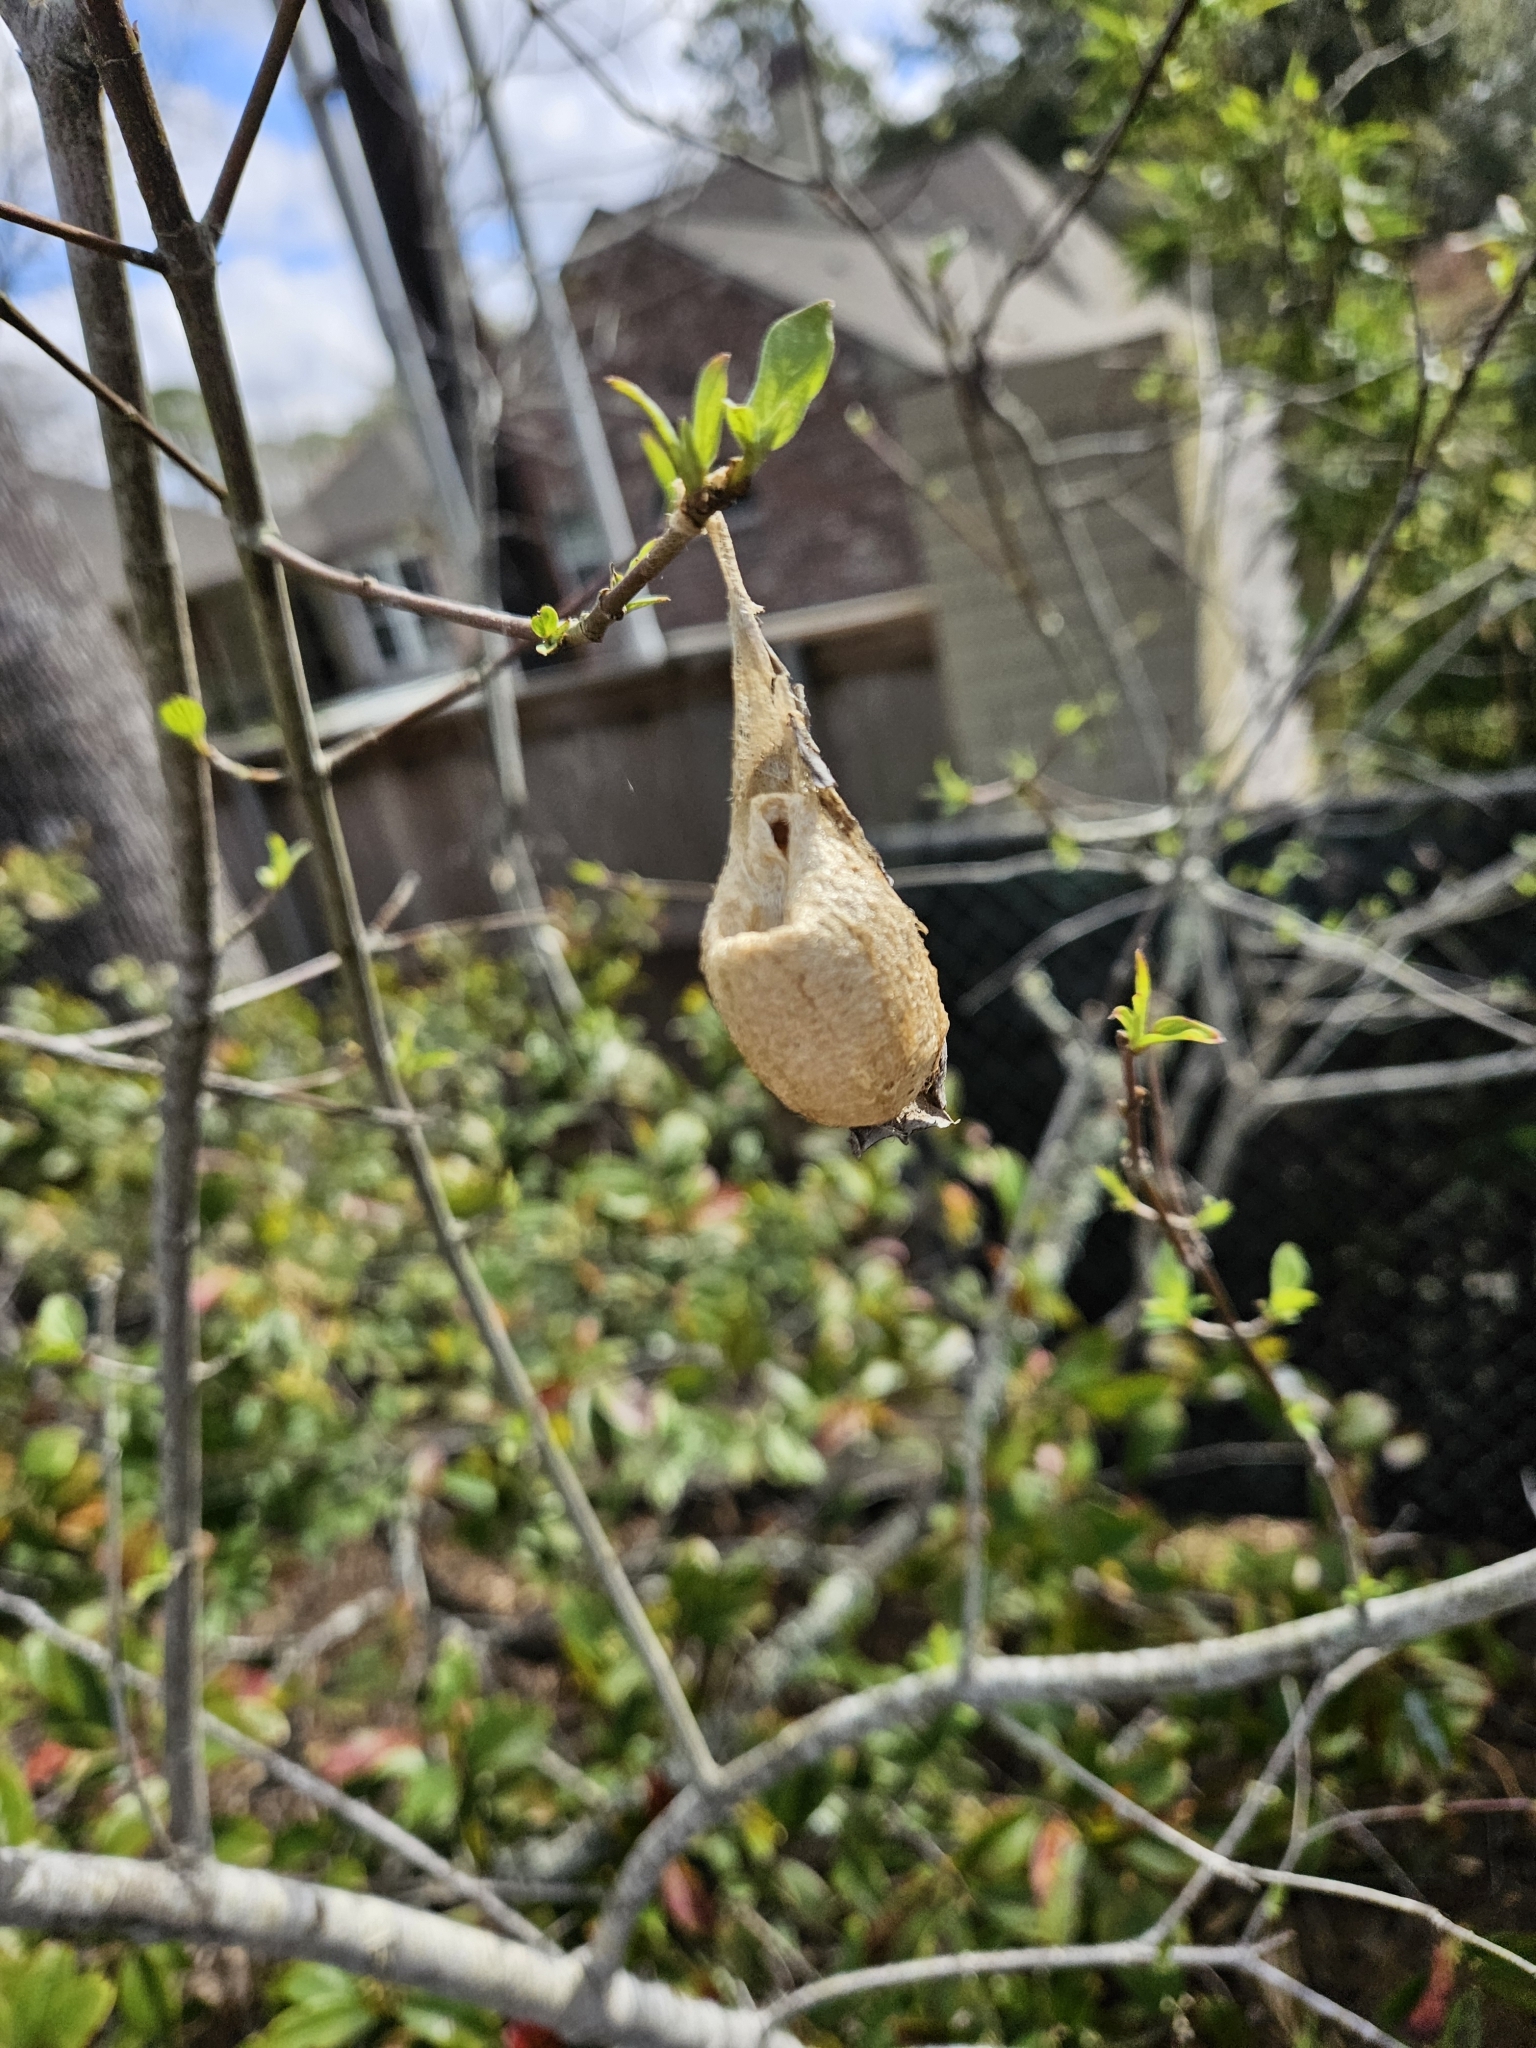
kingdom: Animalia
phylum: Arthropoda
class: Insecta
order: Lepidoptera
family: Saturniidae
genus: Antheraea
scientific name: Antheraea polyphemus
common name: Polyphemus moth
